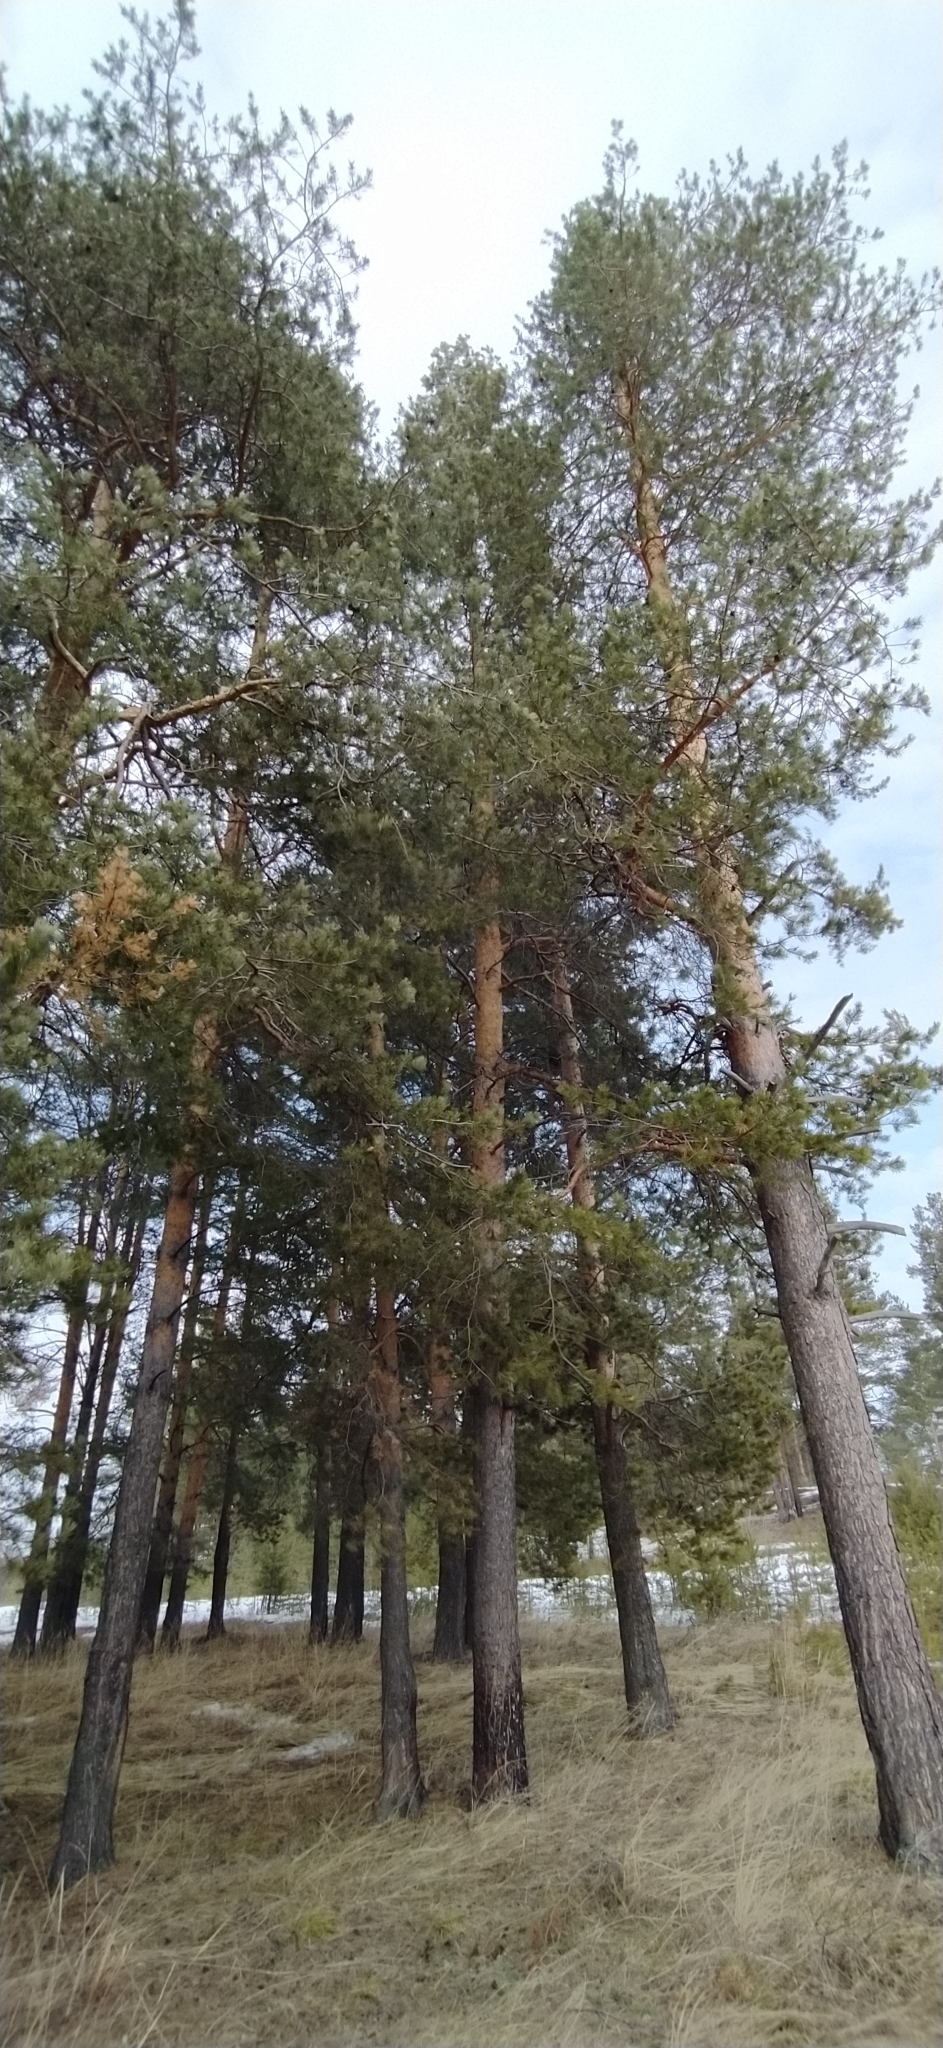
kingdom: Plantae
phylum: Tracheophyta
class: Pinopsida
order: Pinales
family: Pinaceae
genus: Pinus
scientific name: Pinus sylvestris
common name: Scots pine
